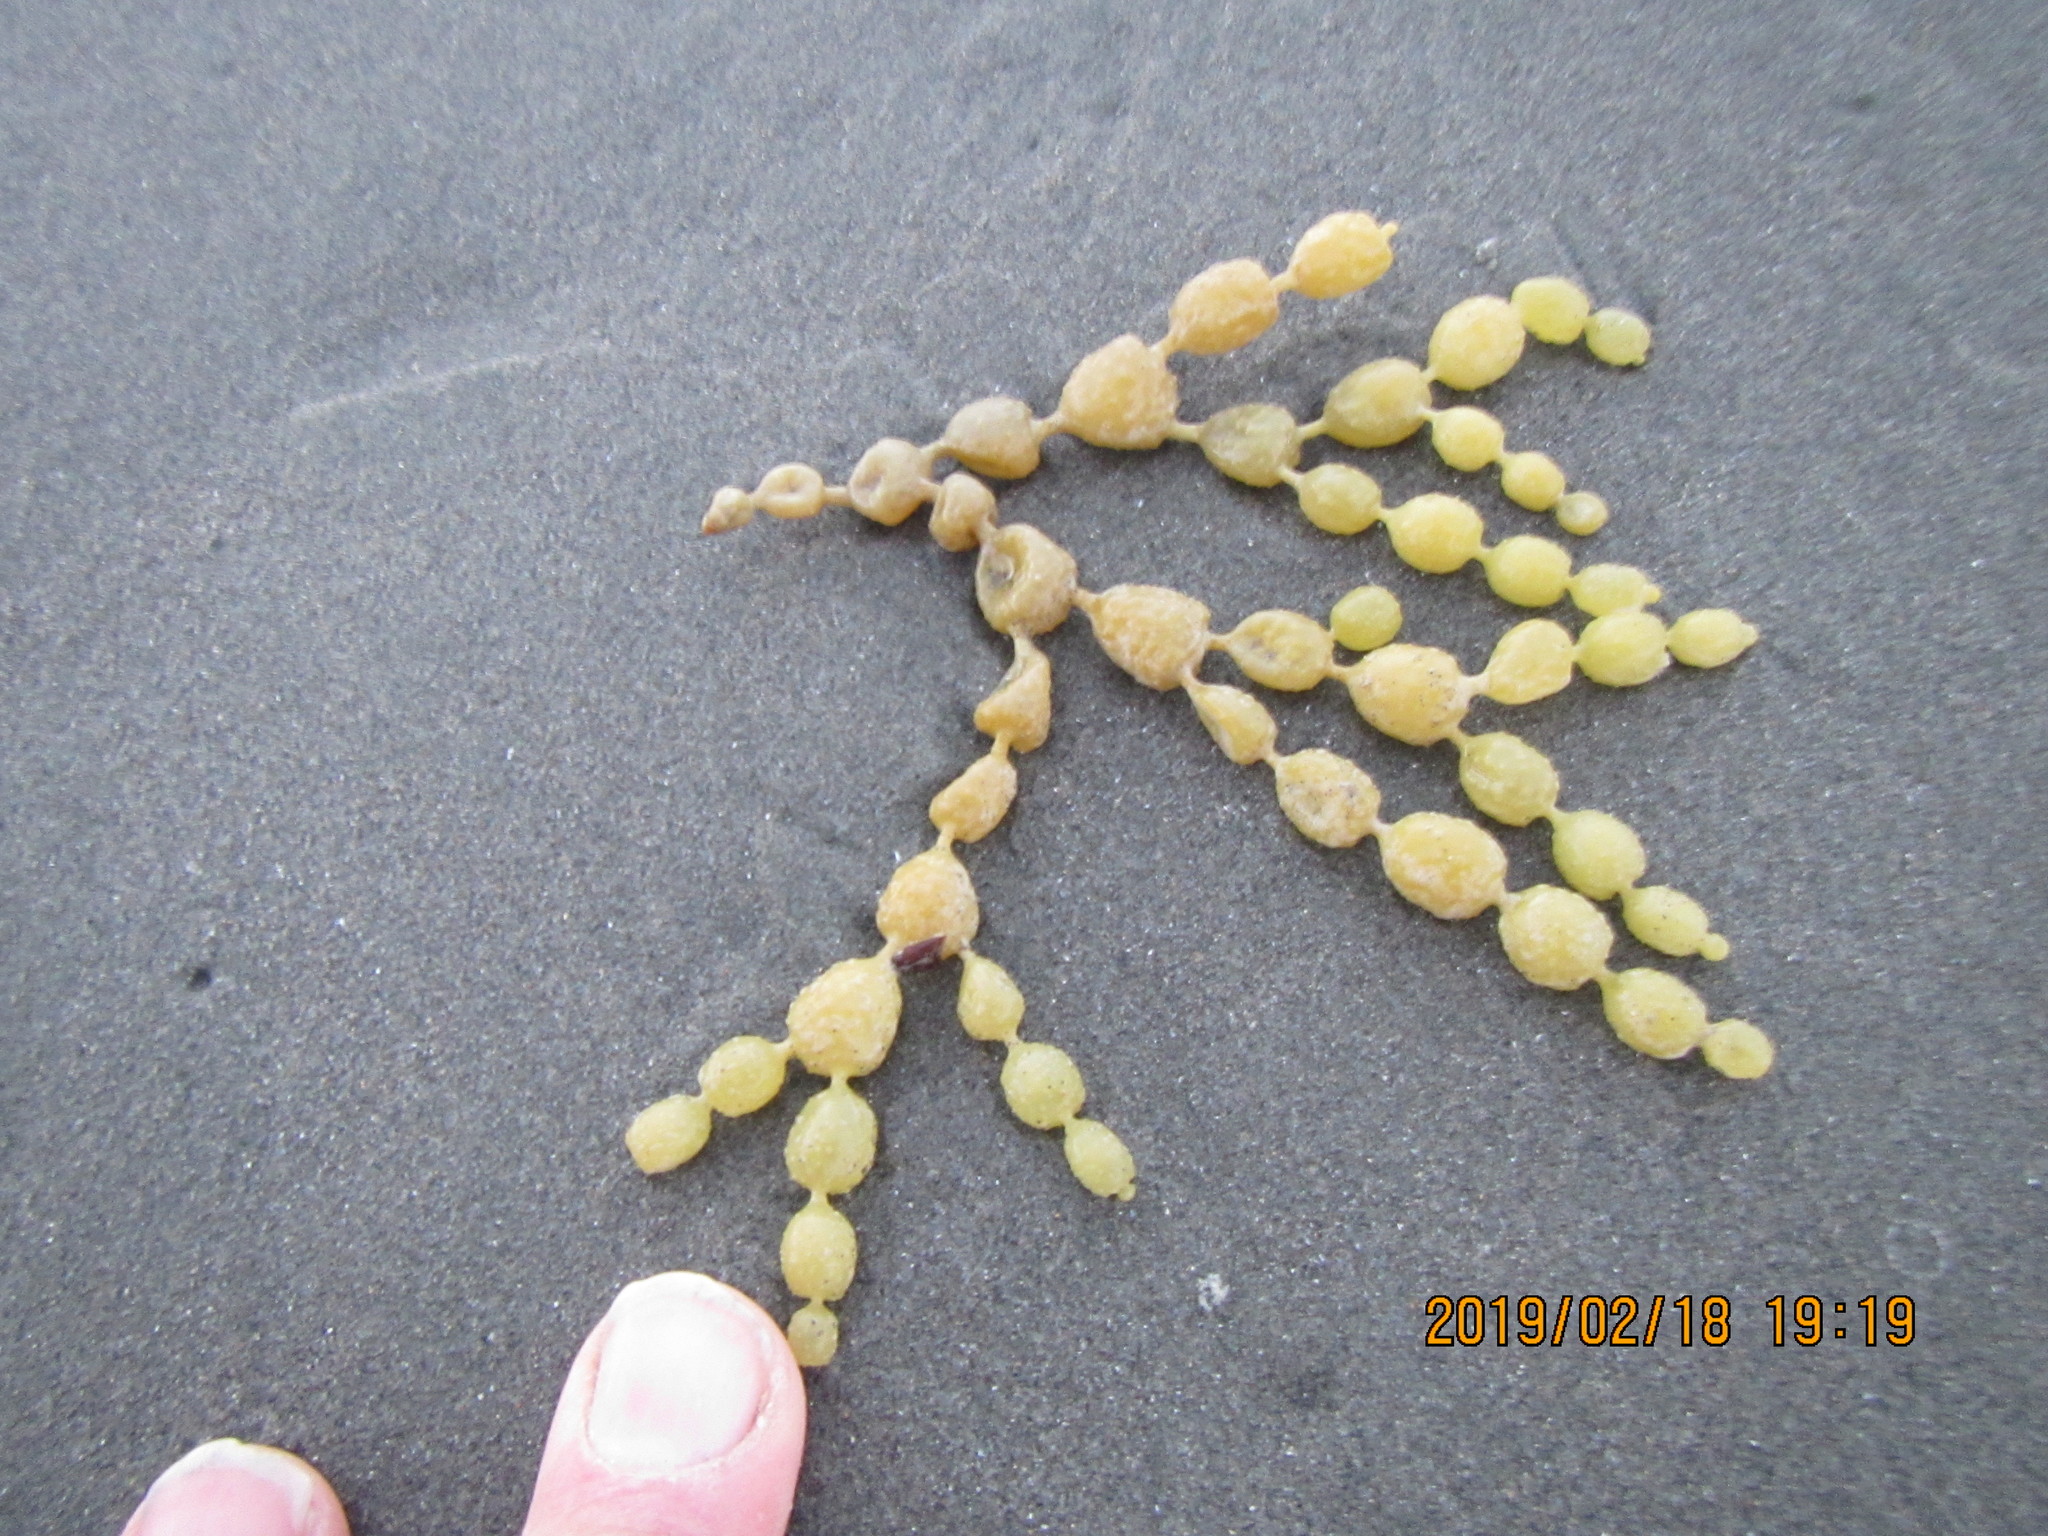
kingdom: Chromista
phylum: Ochrophyta
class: Phaeophyceae
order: Fucales
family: Hormosiraceae
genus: Hormosira
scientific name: Hormosira banksii
